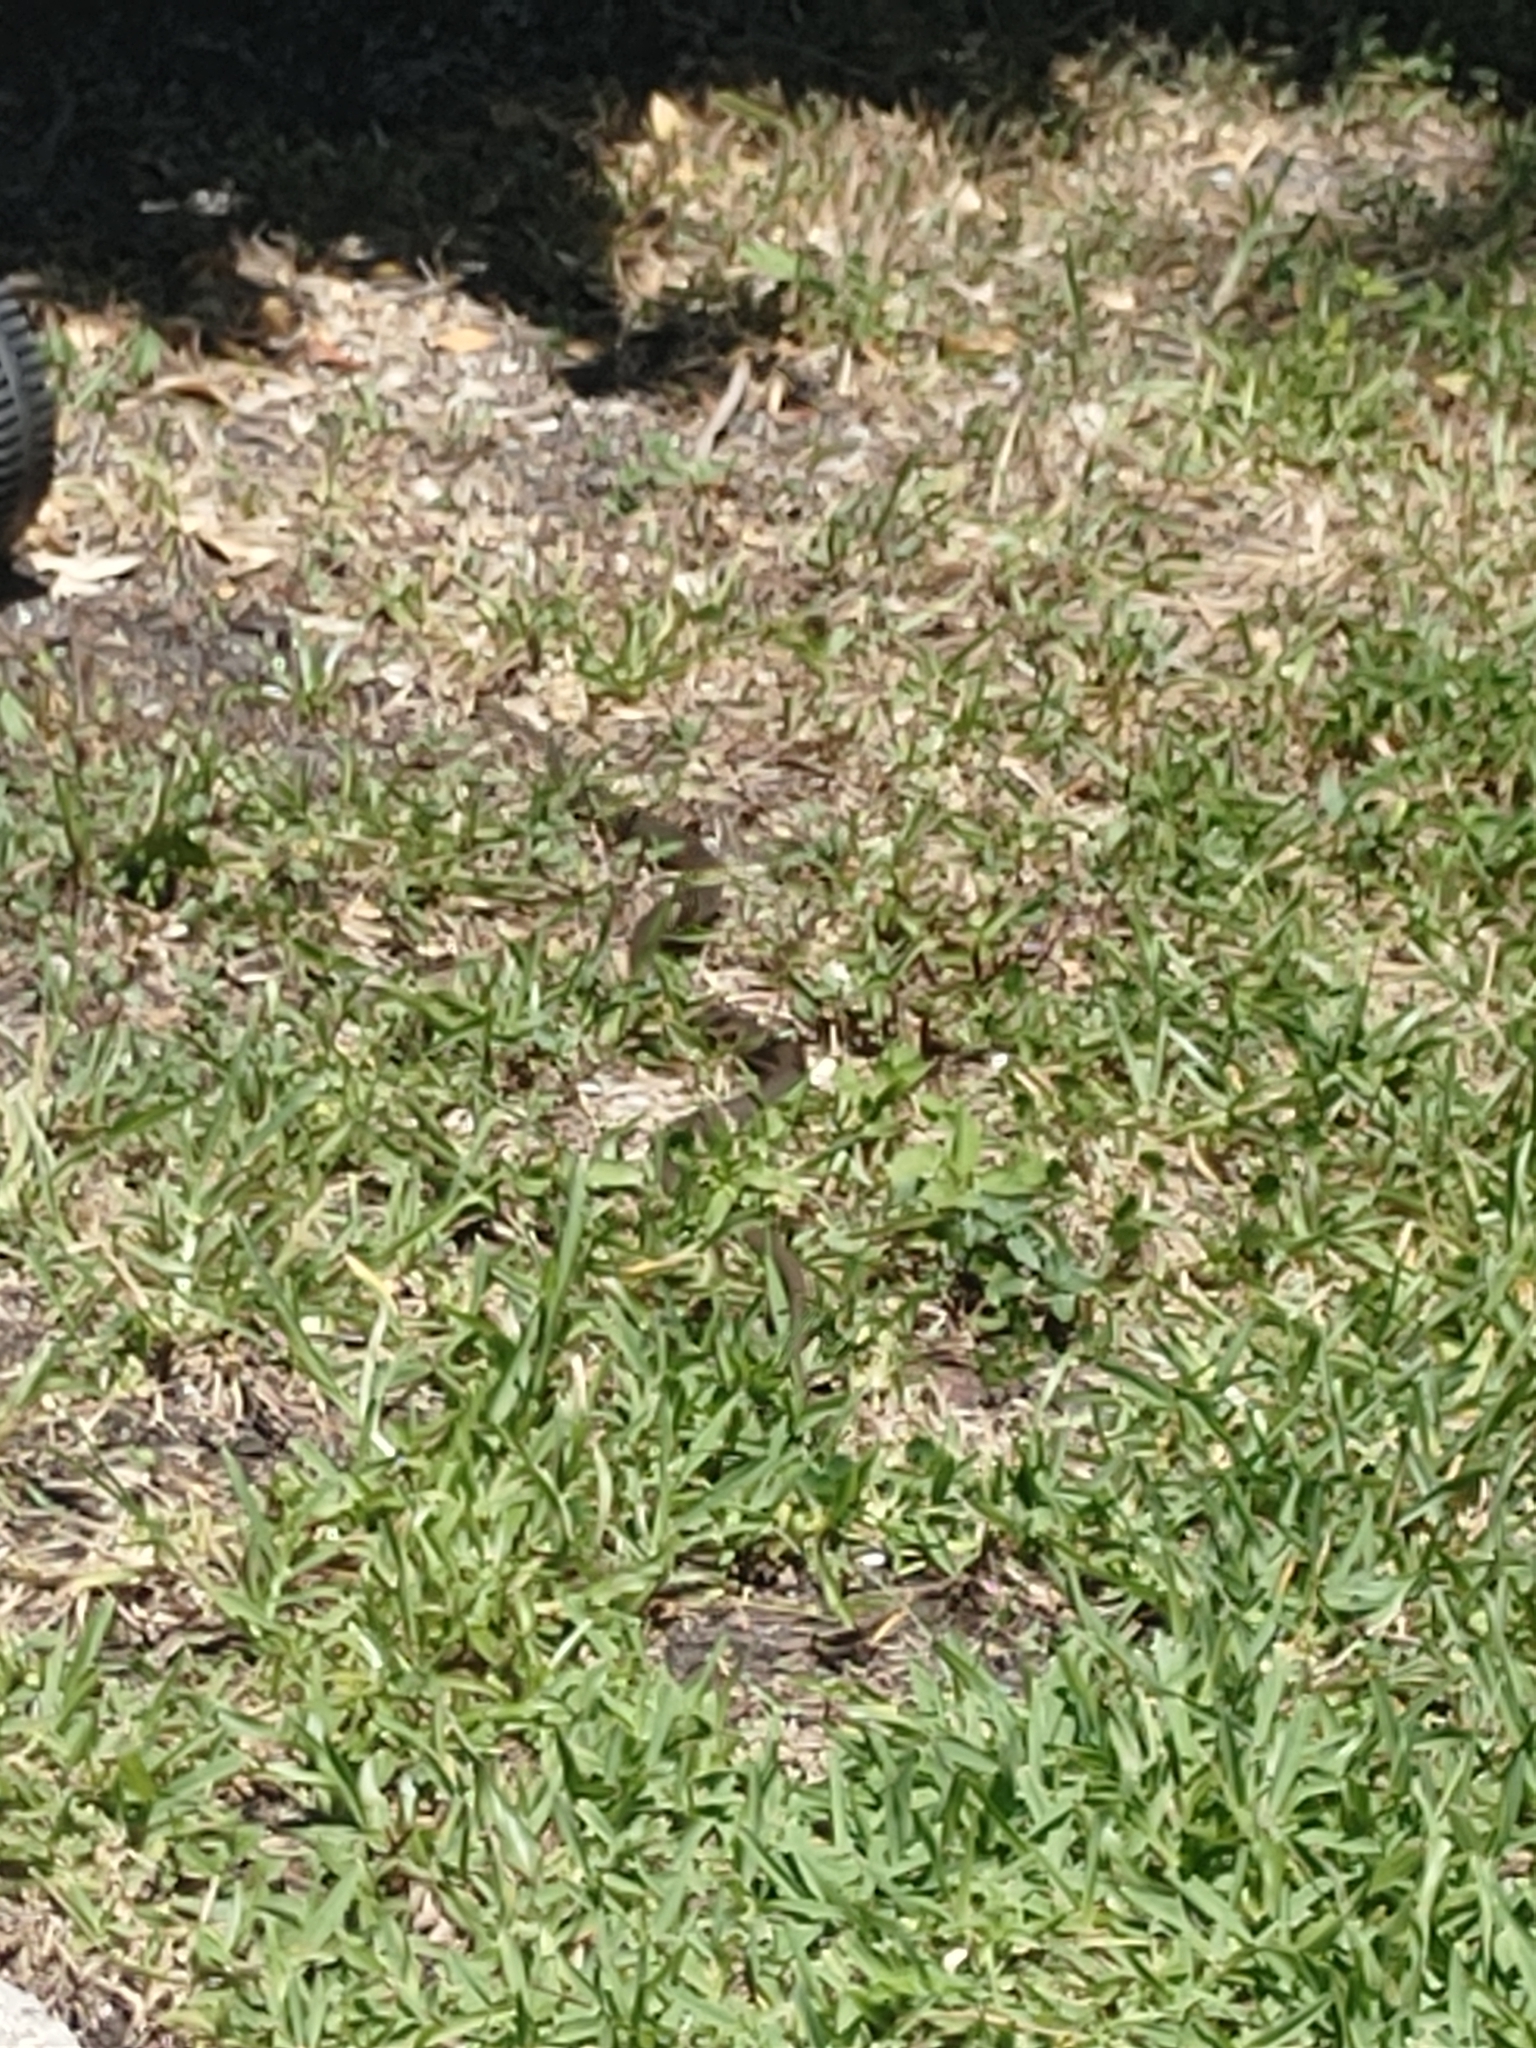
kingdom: Animalia
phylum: Chordata
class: Squamata
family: Colubridae
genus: Coluber
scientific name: Coluber constrictor
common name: Eastern racer
